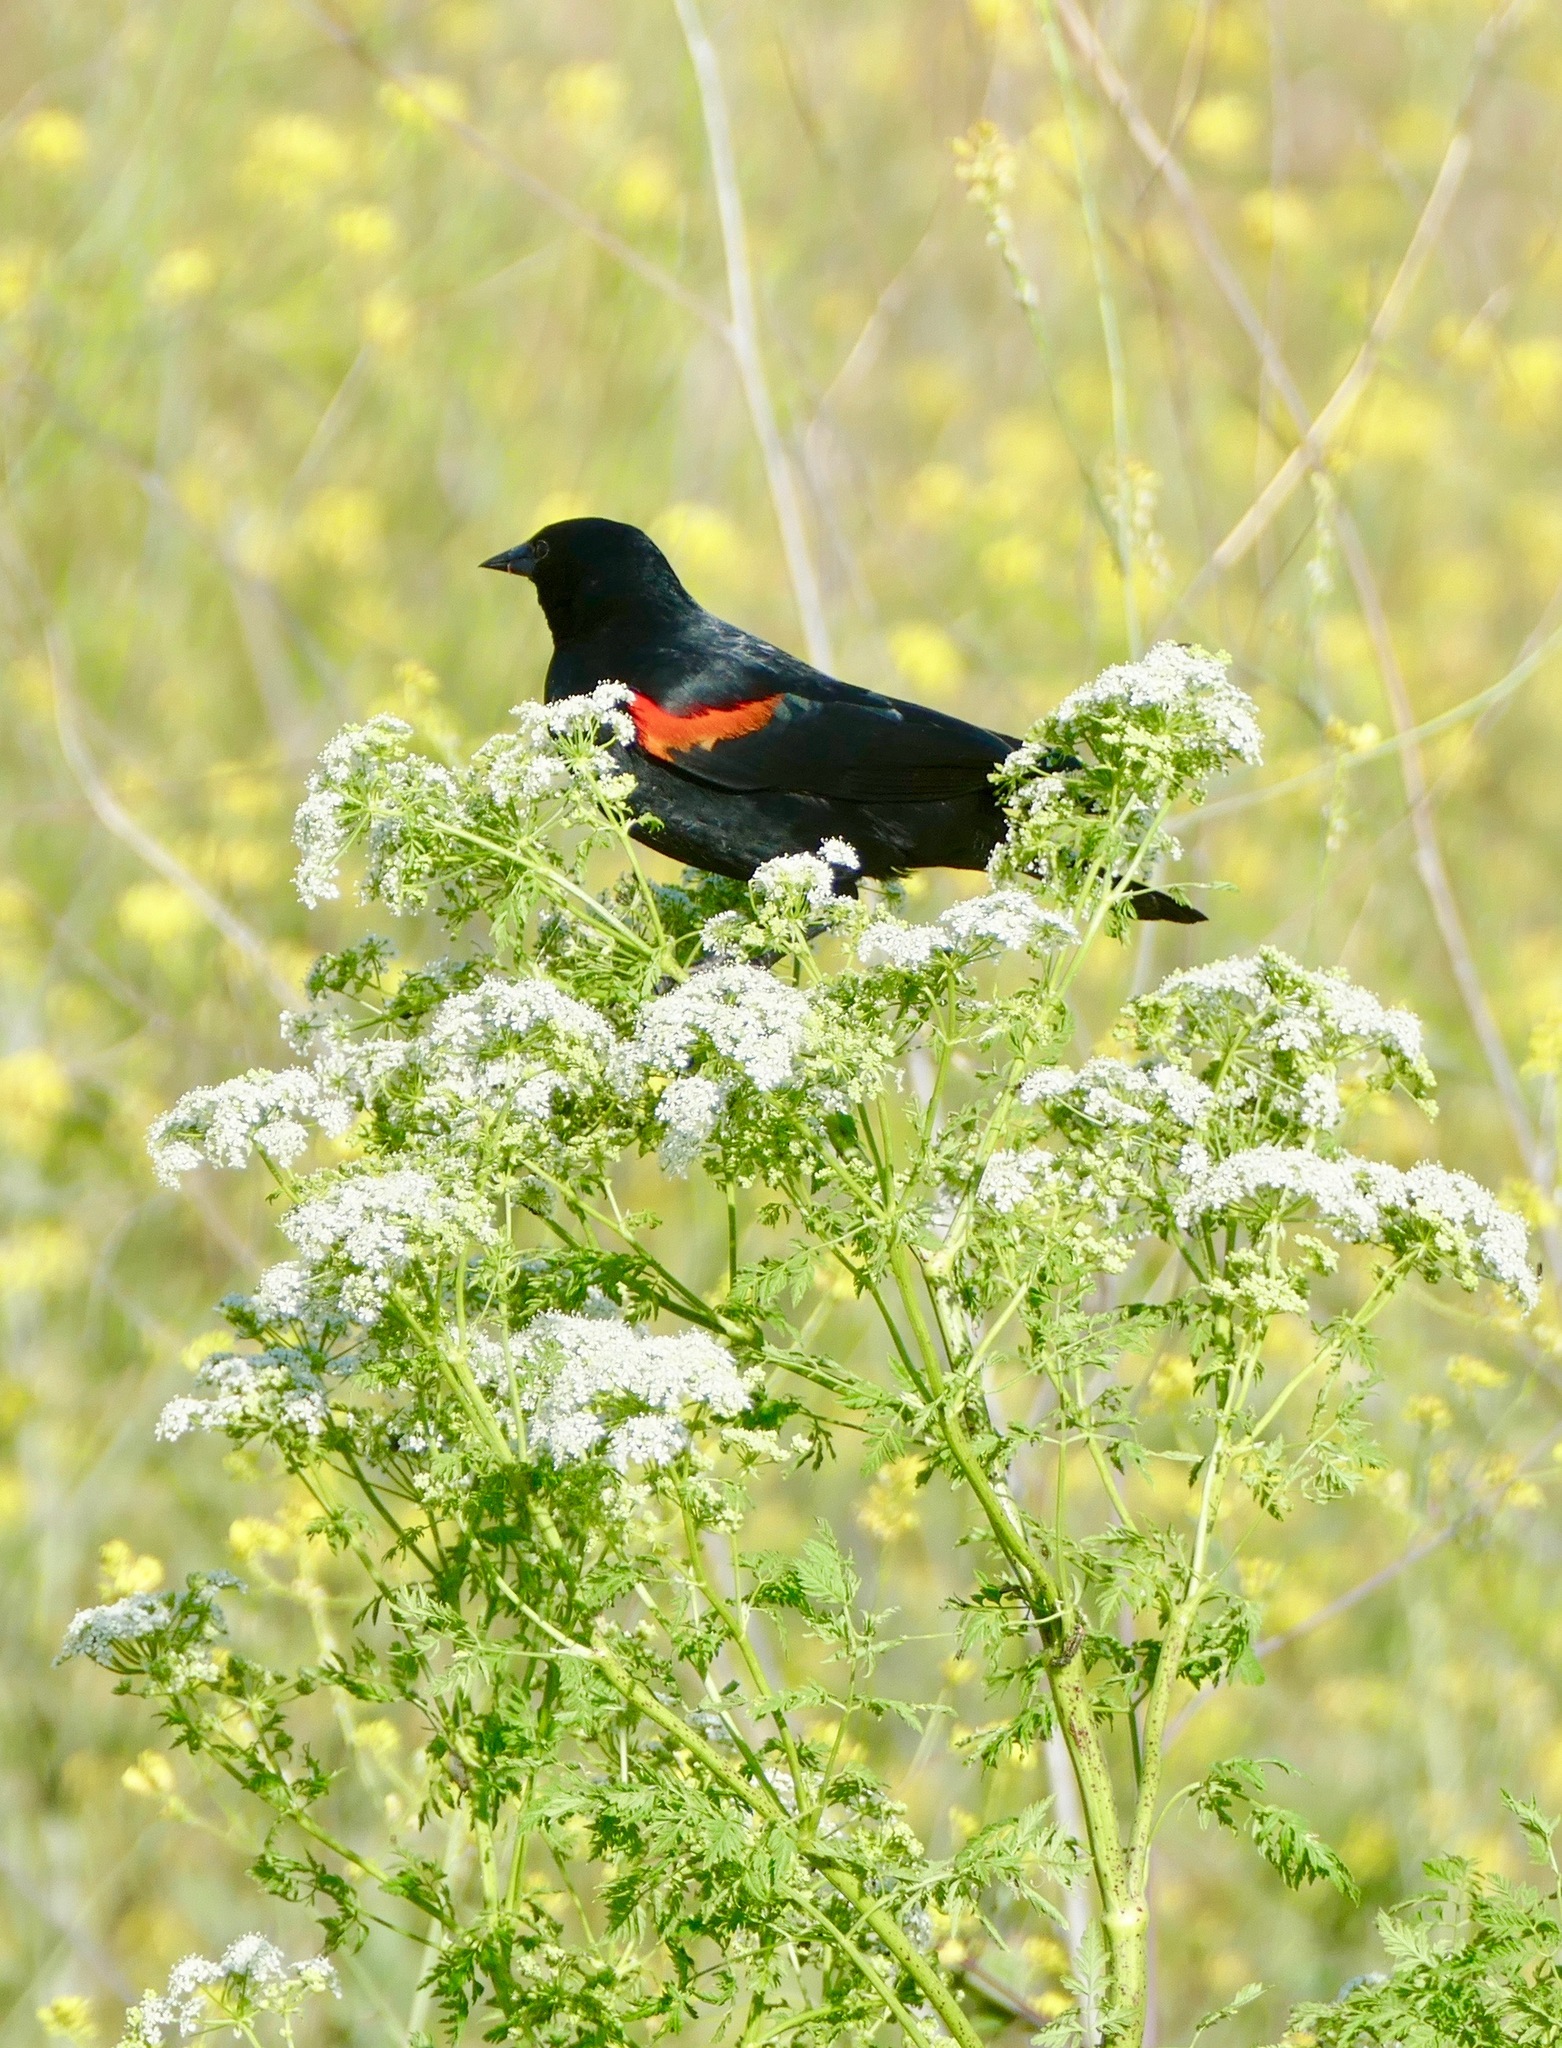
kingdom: Animalia
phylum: Chordata
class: Aves
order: Passeriformes
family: Icteridae
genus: Agelaius
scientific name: Agelaius phoeniceus
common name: Red-winged blackbird
